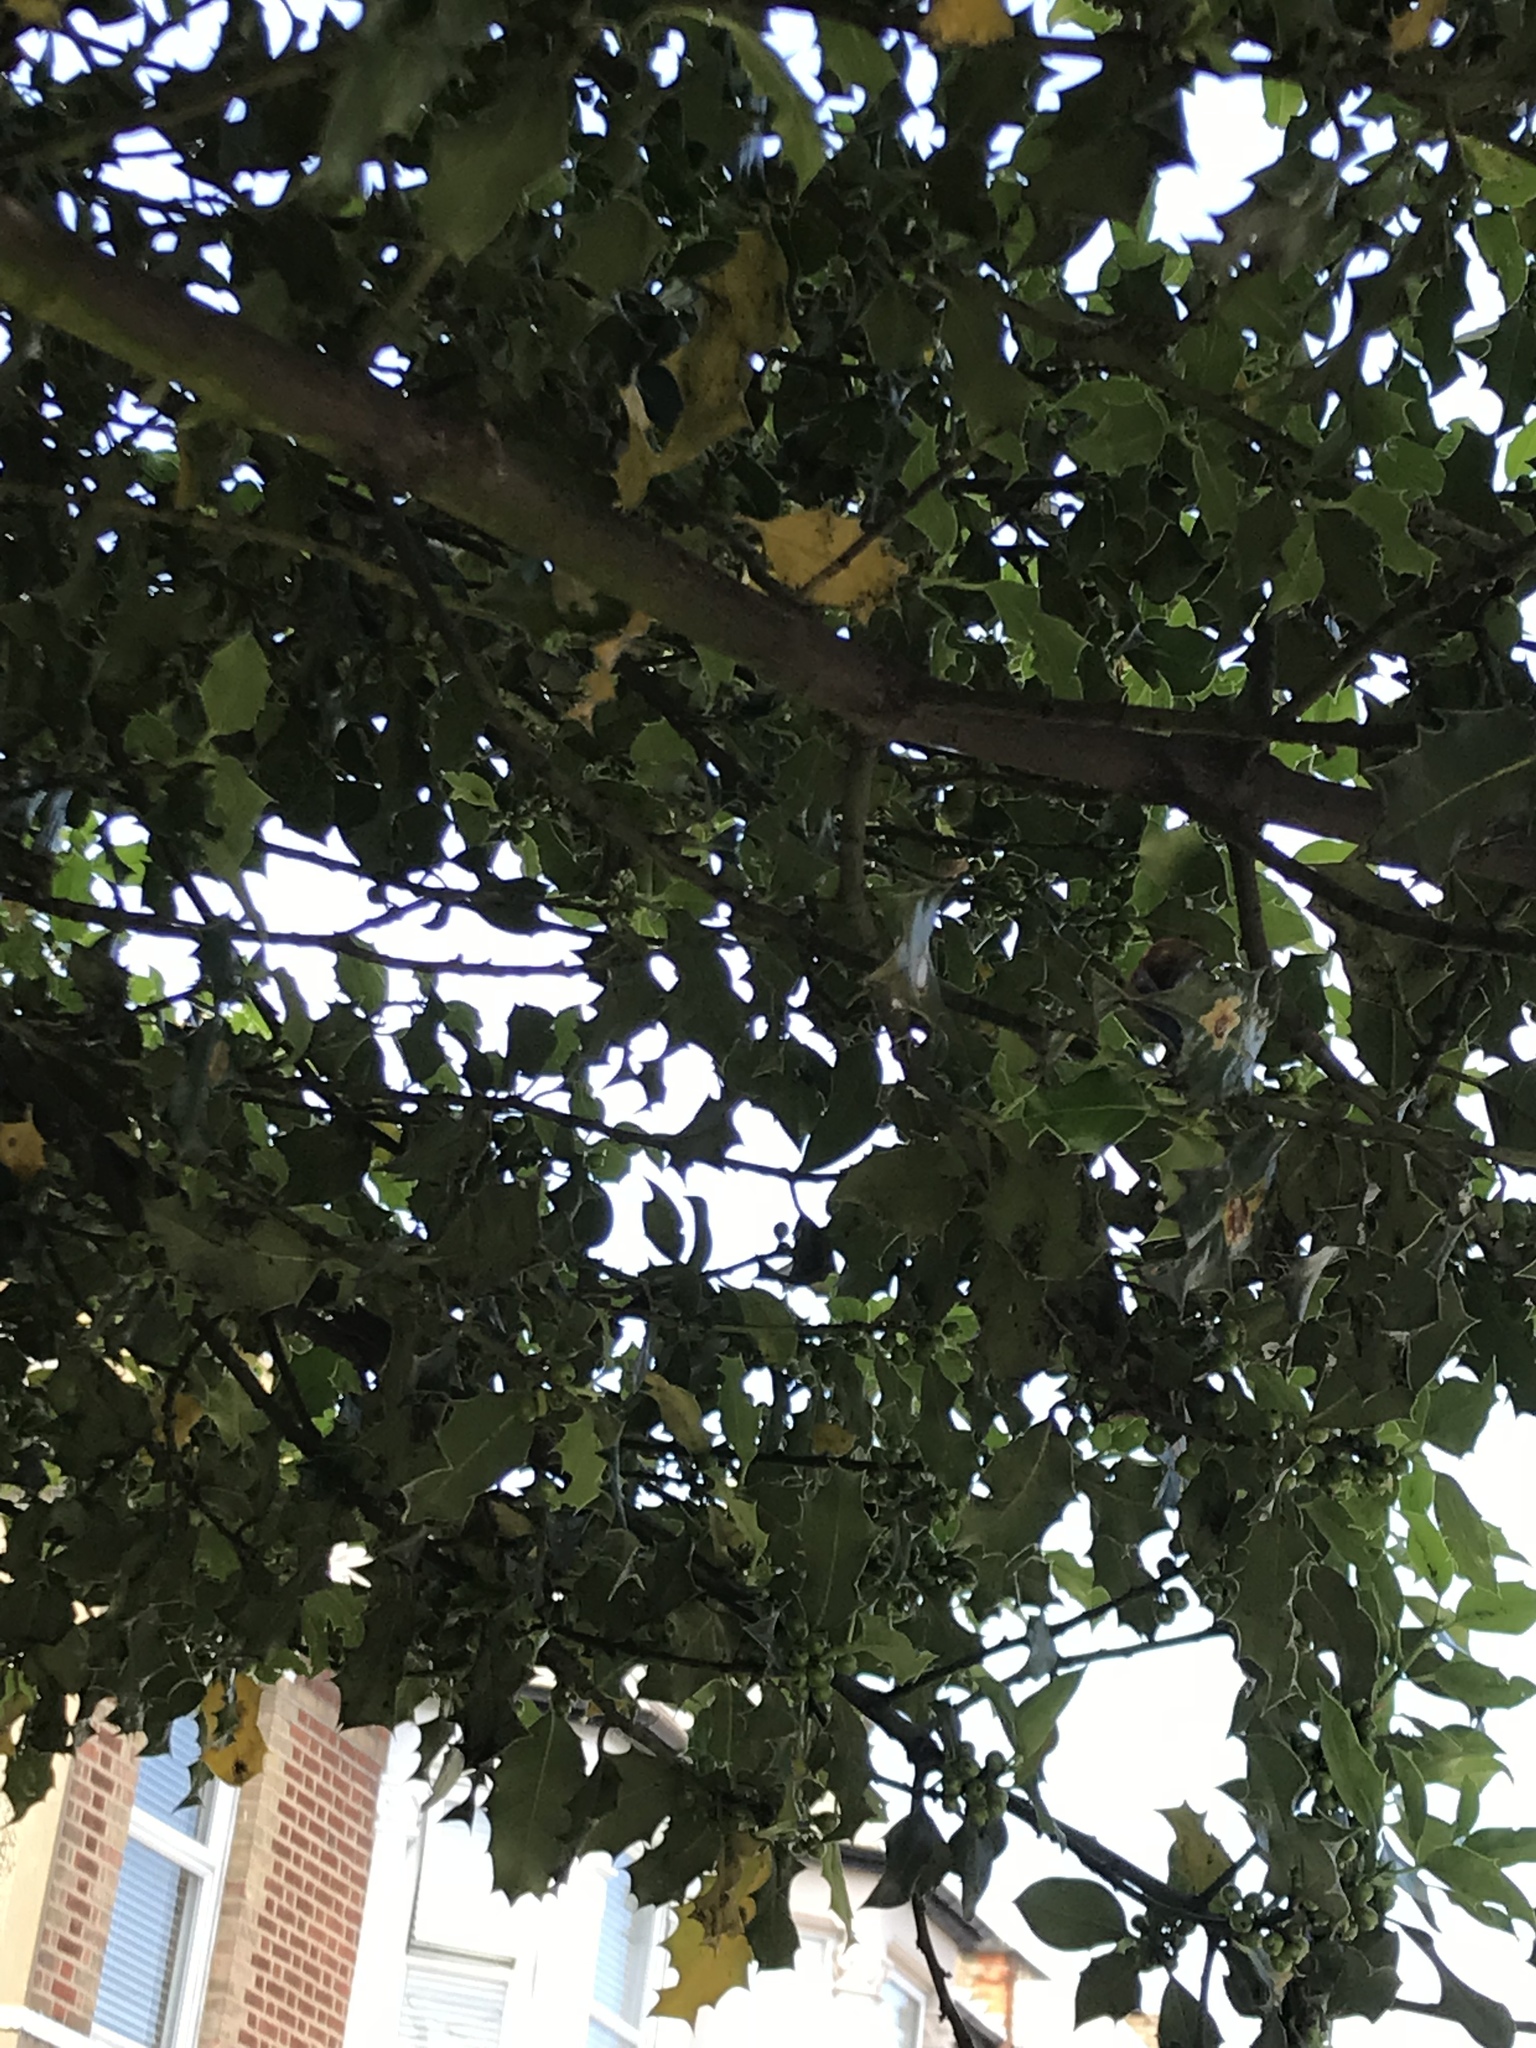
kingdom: Plantae
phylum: Tracheophyta
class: Magnoliopsida
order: Aquifoliales
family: Aquifoliaceae
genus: Ilex
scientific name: Ilex aquifolium
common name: English holly
